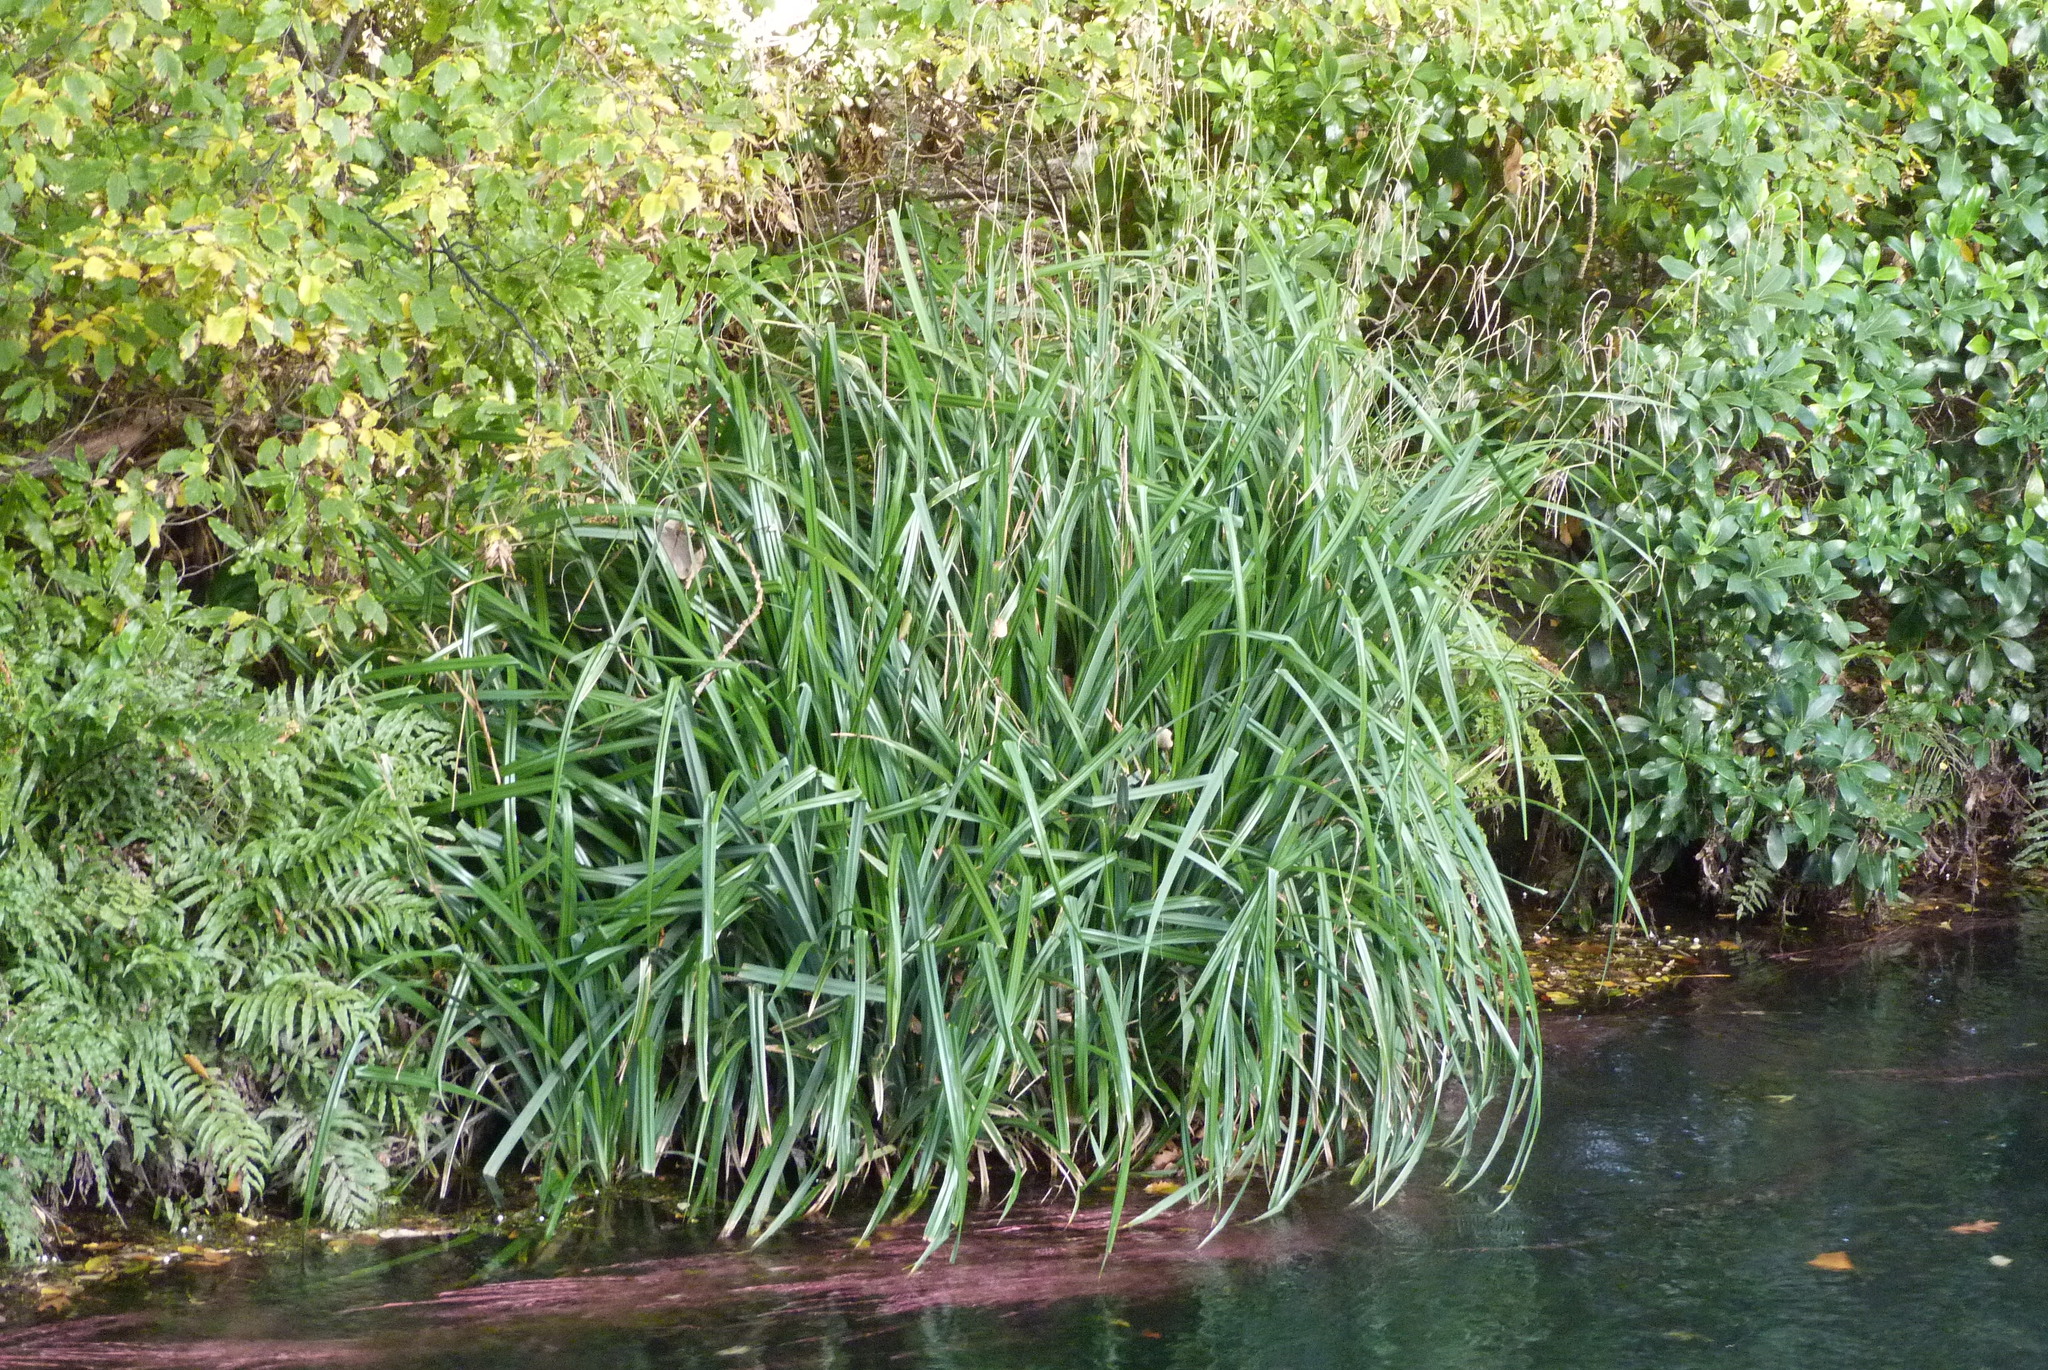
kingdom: Plantae
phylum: Tracheophyta
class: Liliopsida
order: Poales
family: Cyperaceae
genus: Carex
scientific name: Carex pendula
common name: Pendulous sedge
